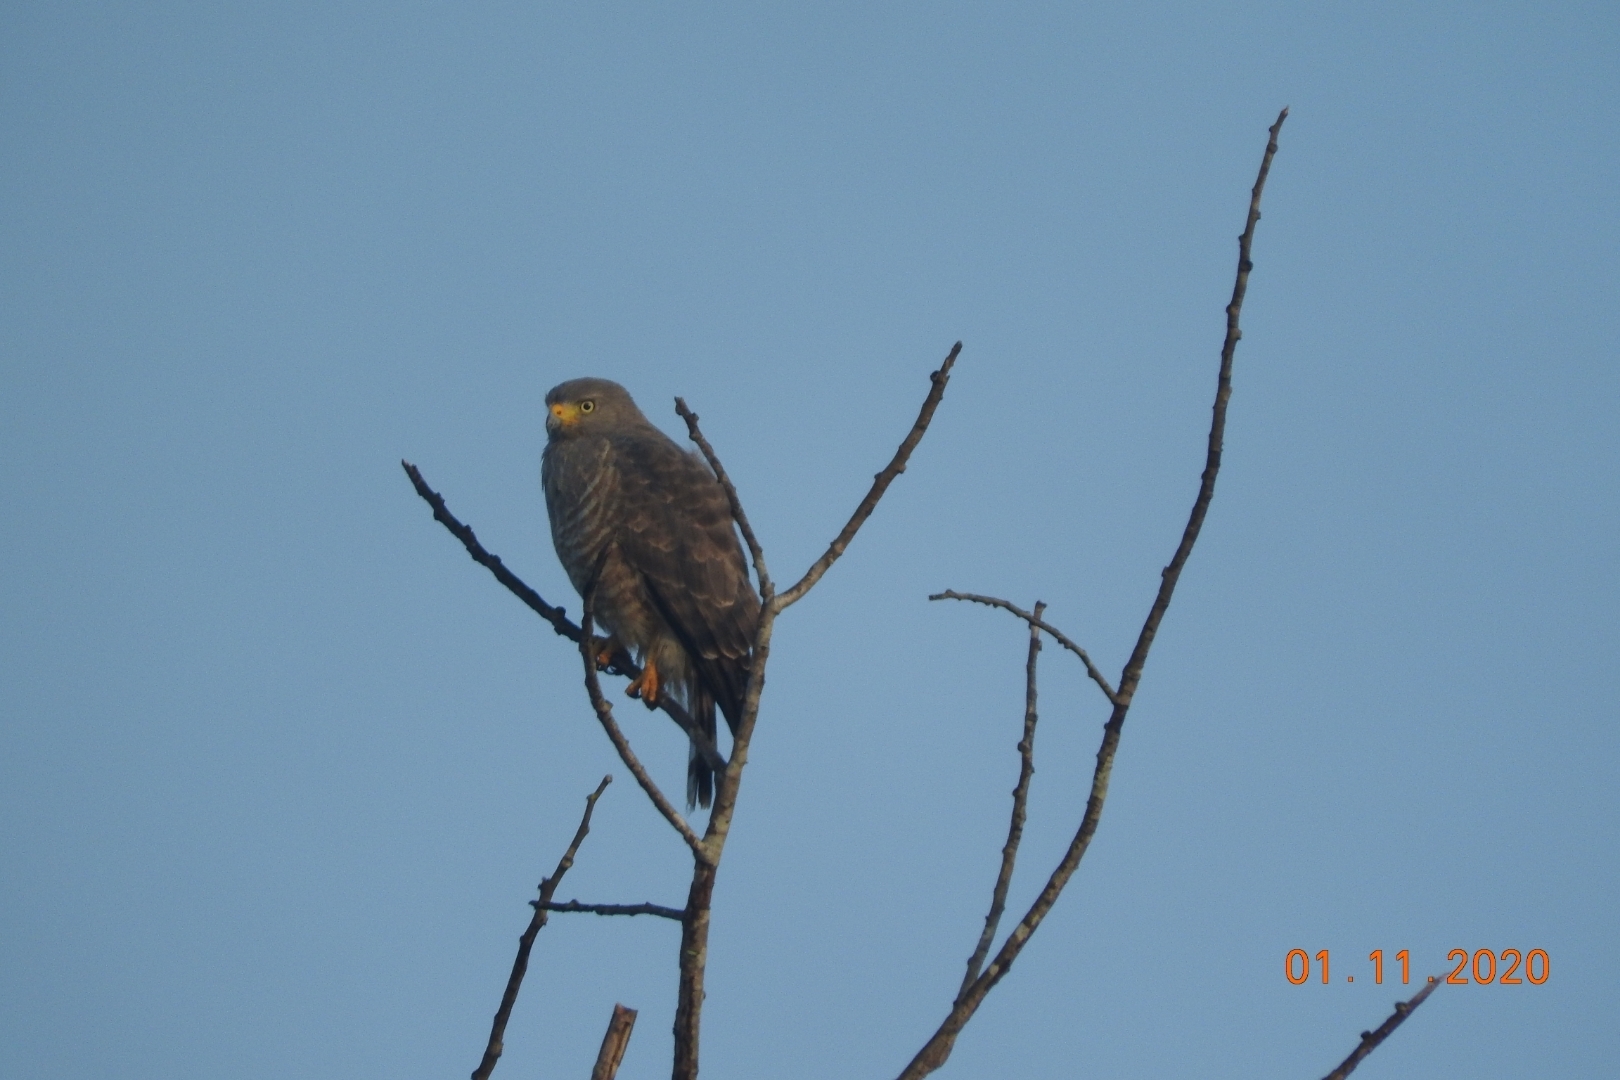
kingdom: Animalia
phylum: Chordata
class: Aves
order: Accipitriformes
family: Accipitridae
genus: Rupornis
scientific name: Rupornis magnirostris
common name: Roadside hawk
